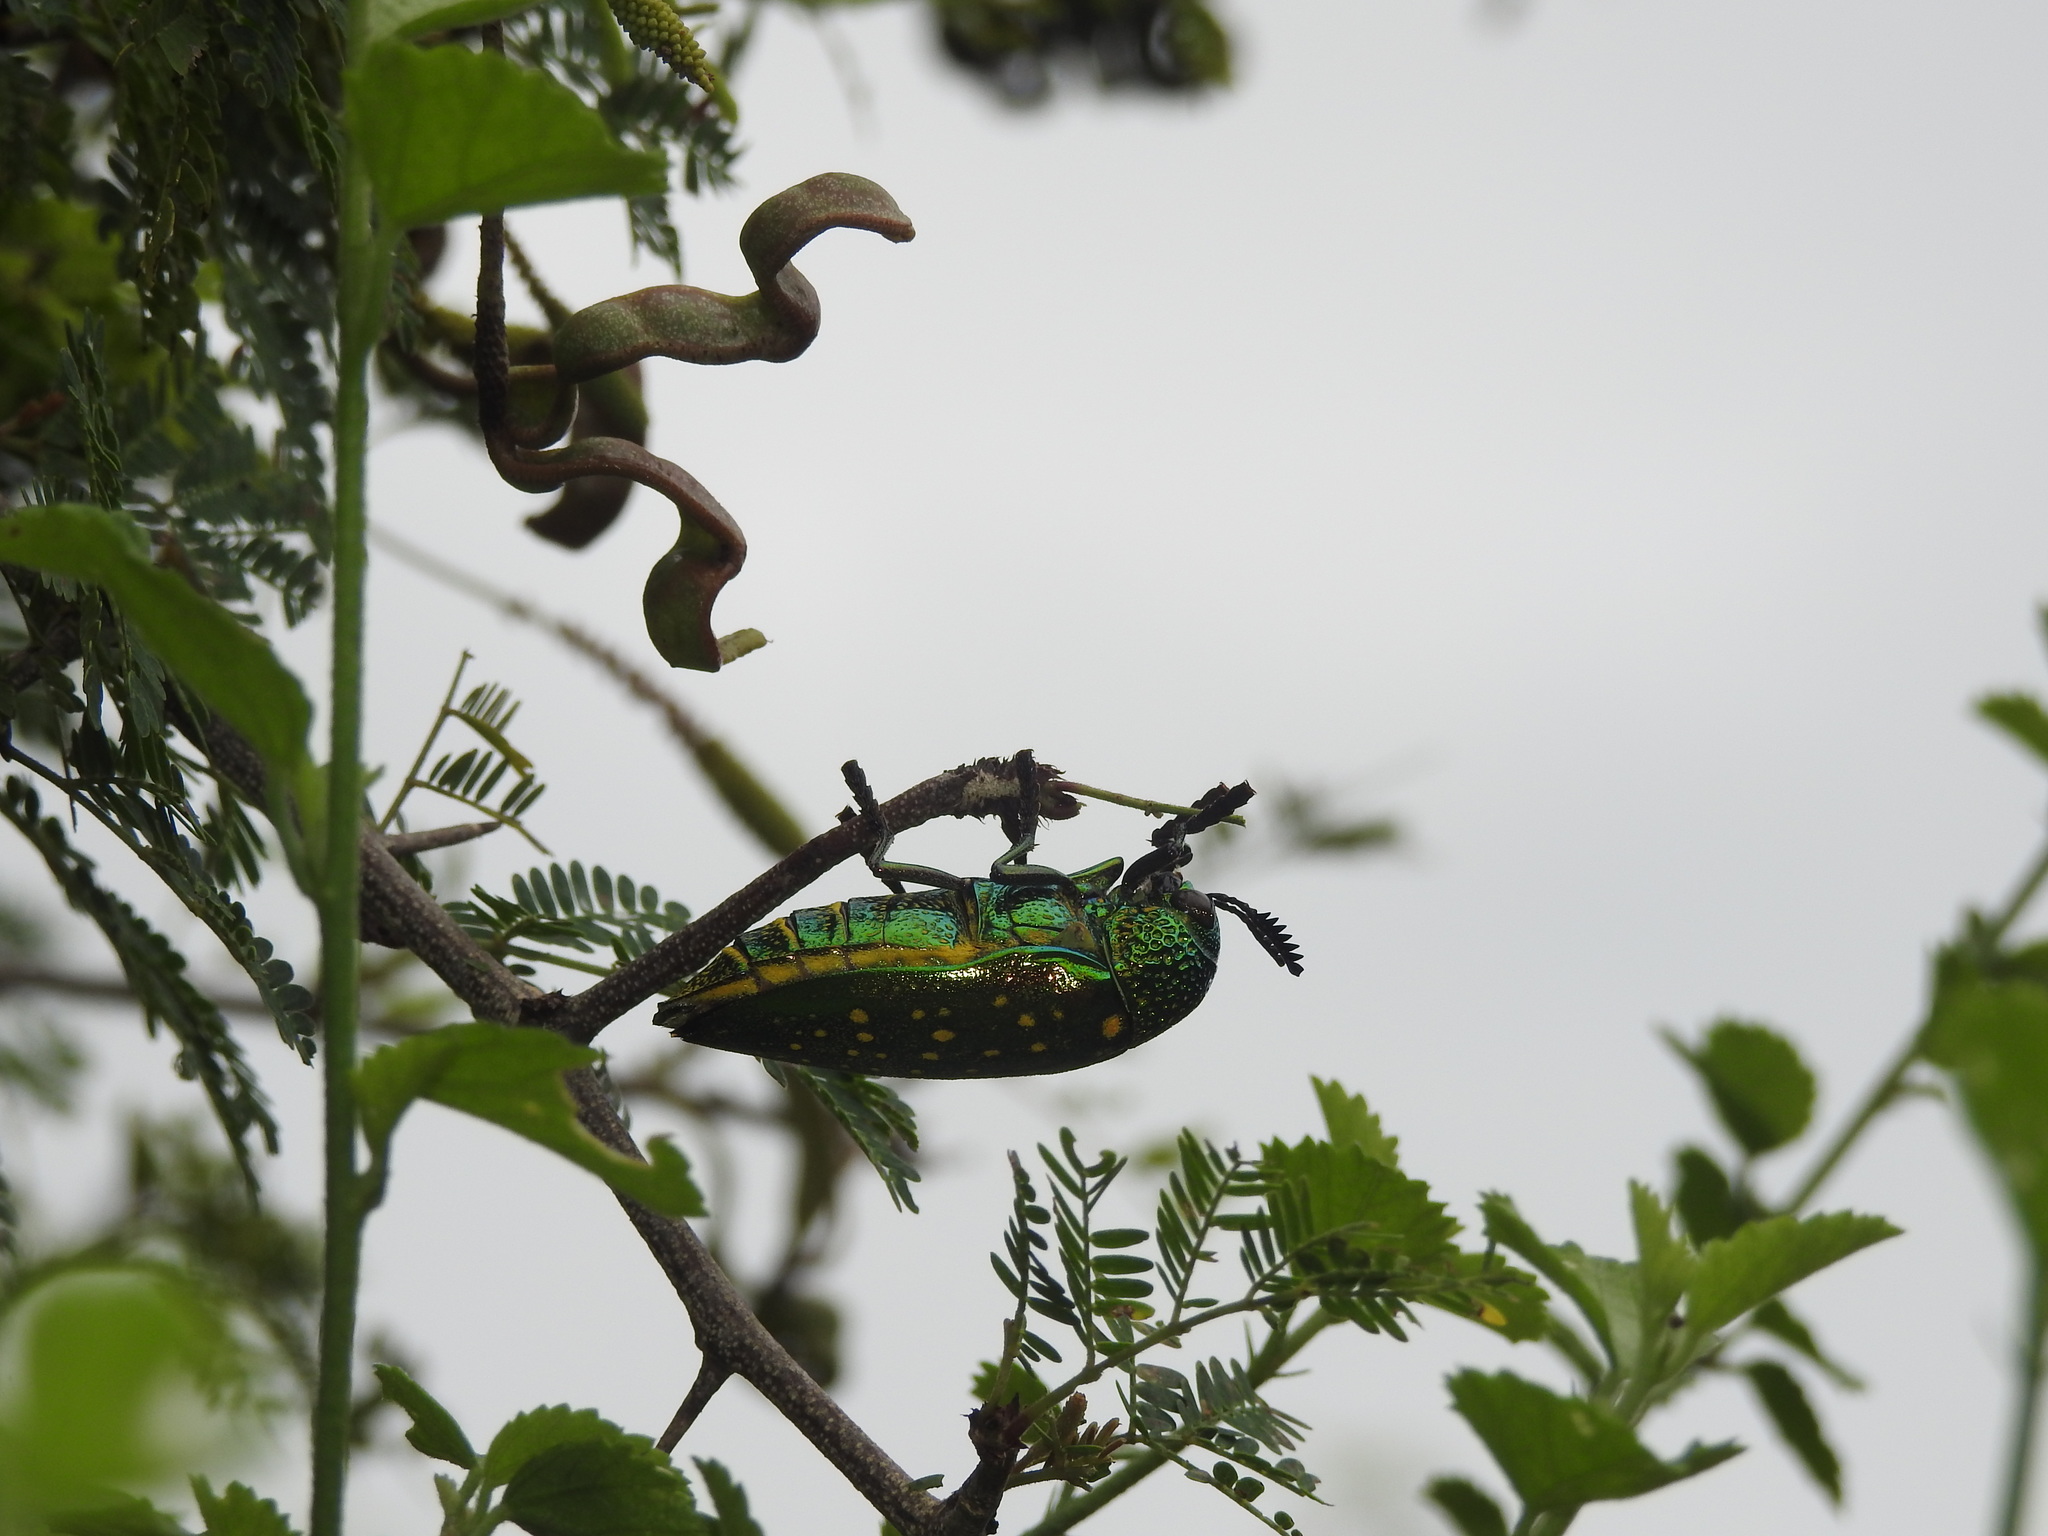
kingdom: Plantae
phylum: Tracheophyta
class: Magnoliopsida
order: Fabales
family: Fabaceae
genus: Dichrostachys
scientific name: Dichrostachys cinerea
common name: Sicklebush
